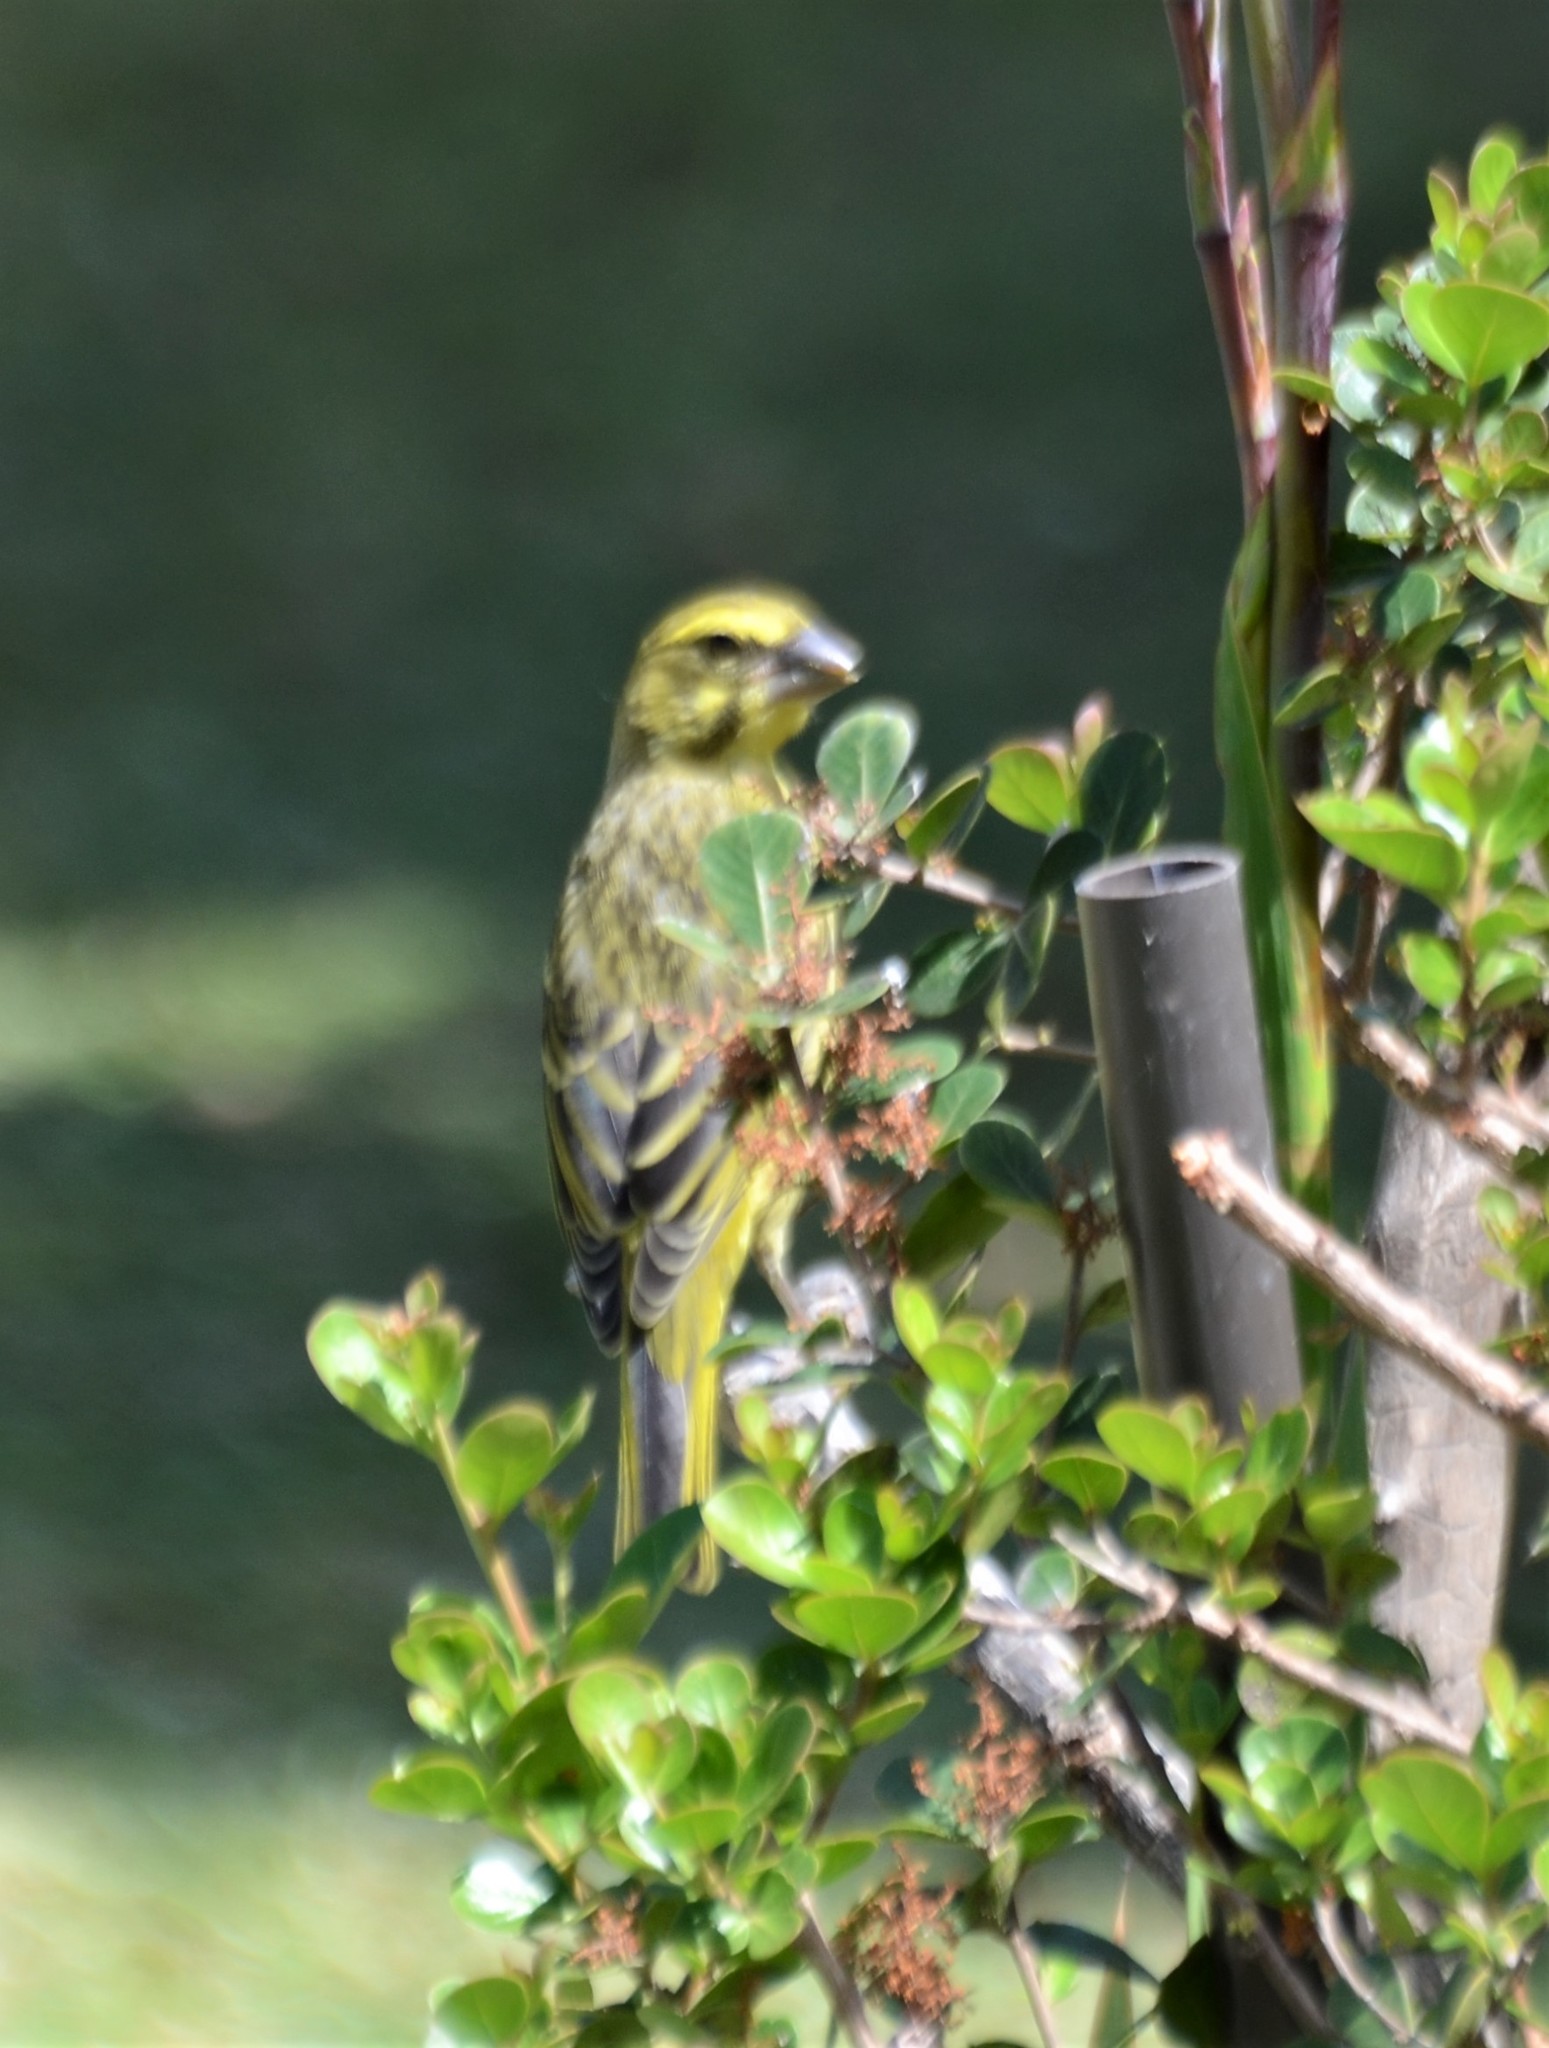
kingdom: Animalia
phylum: Chordata
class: Aves
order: Passeriformes
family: Fringillidae
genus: Crithagra
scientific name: Crithagra sulphurata
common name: Brimstone canary
